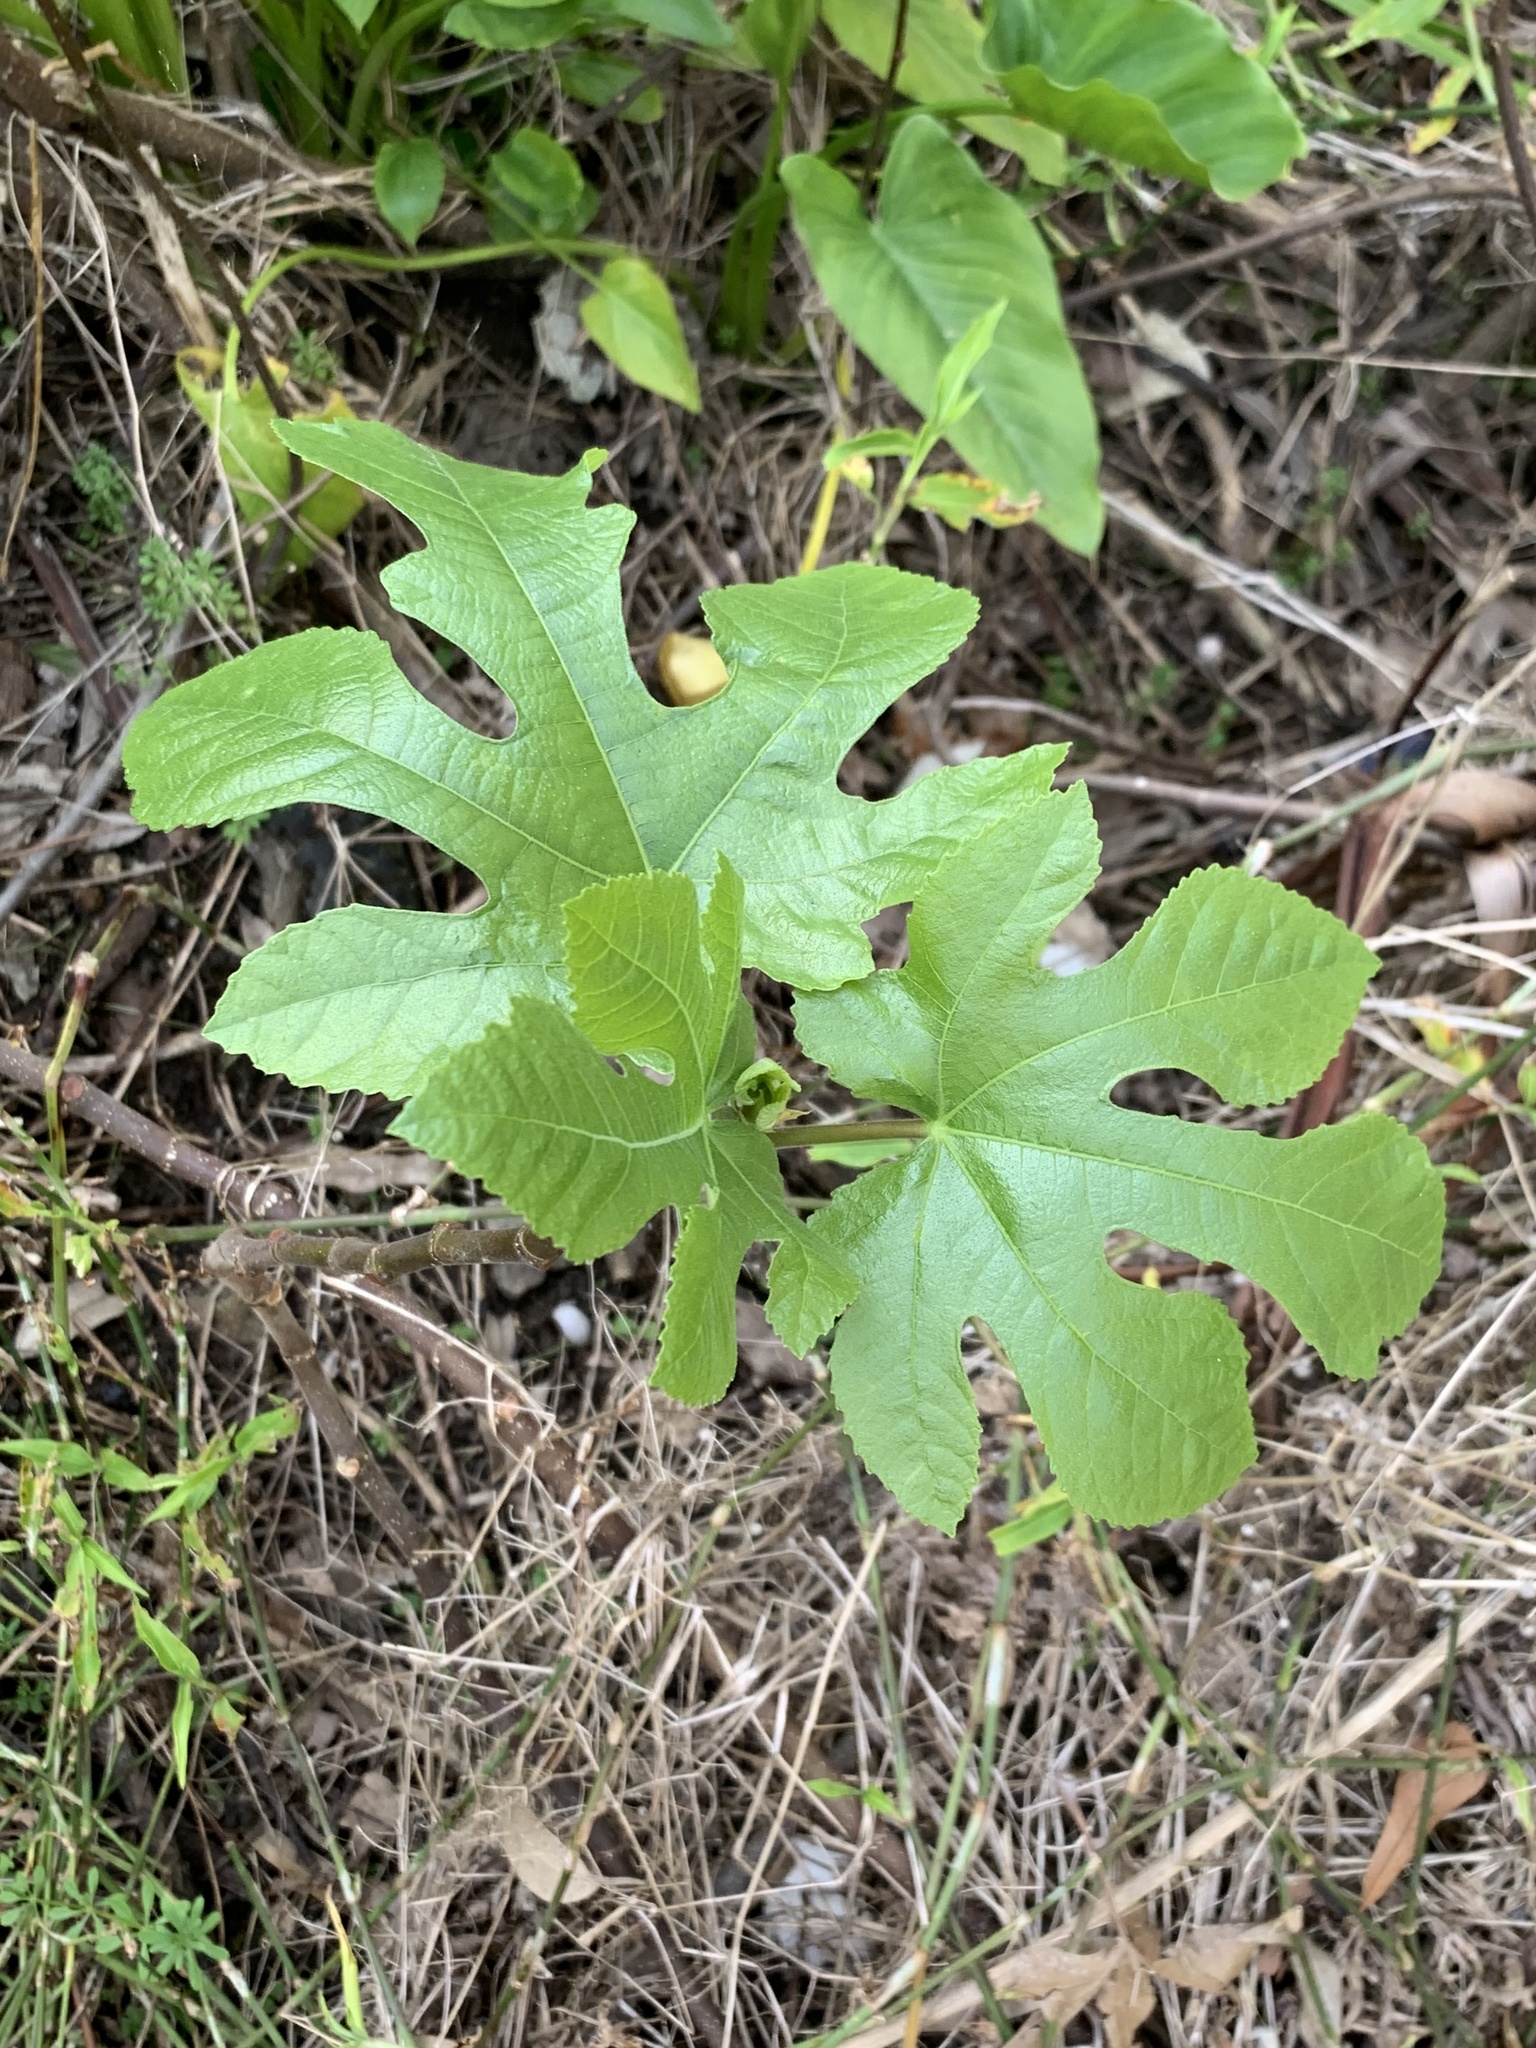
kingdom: Plantae
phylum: Tracheophyta
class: Magnoliopsida
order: Rosales
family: Moraceae
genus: Ficus
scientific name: Ficus carica
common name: Fig
